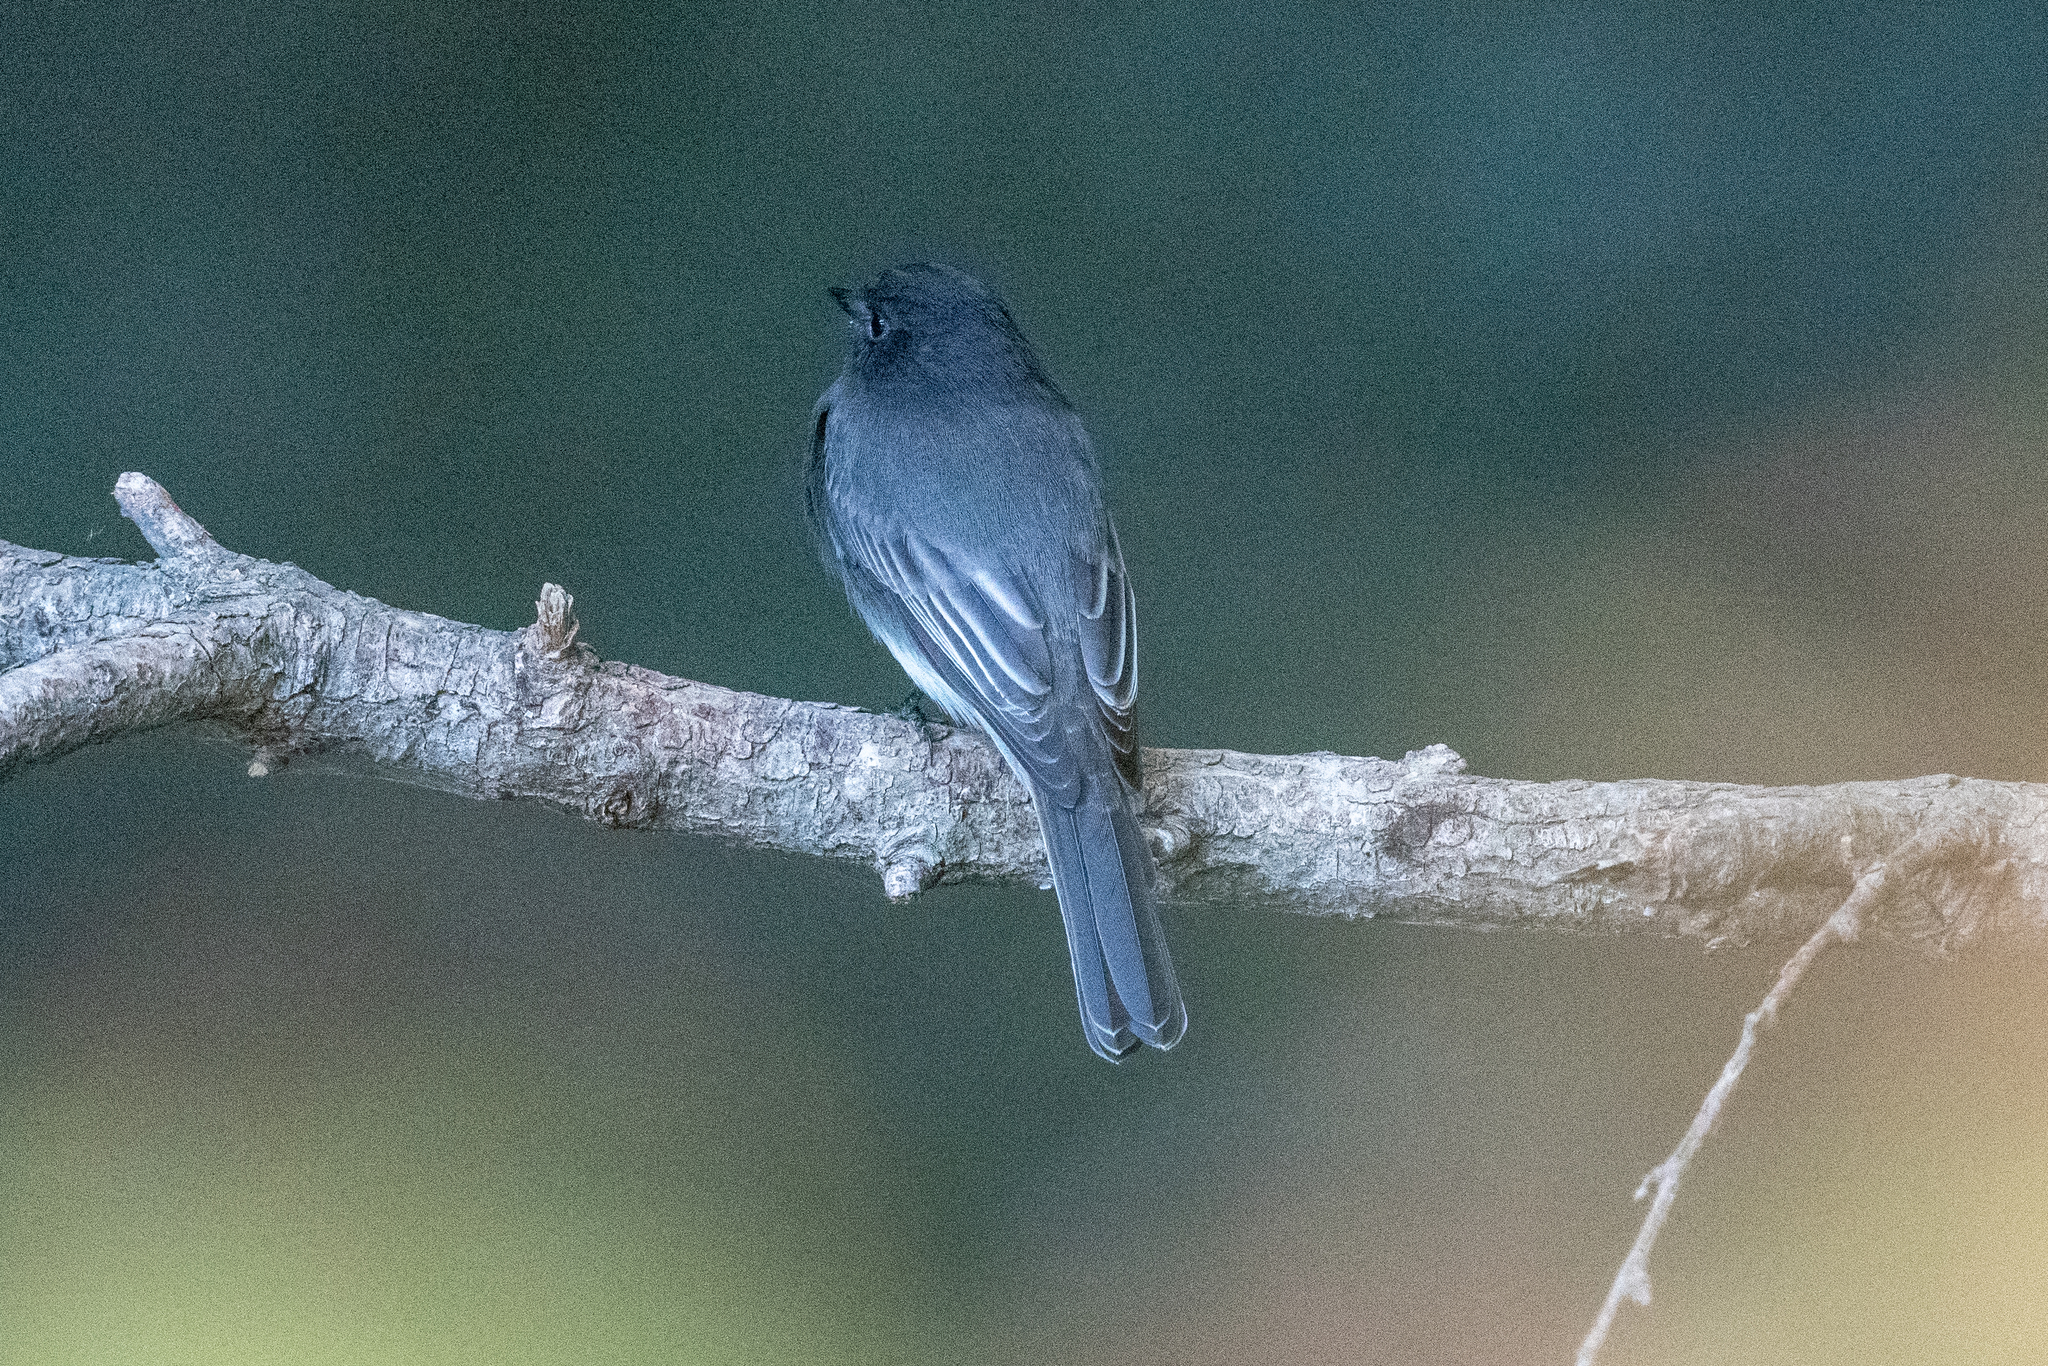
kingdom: Animalia
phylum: Chordata
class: Aves
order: Passeriformes
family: Tyrannidae
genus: Sayornis
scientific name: Sayornis nigricans
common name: Black phoebe
